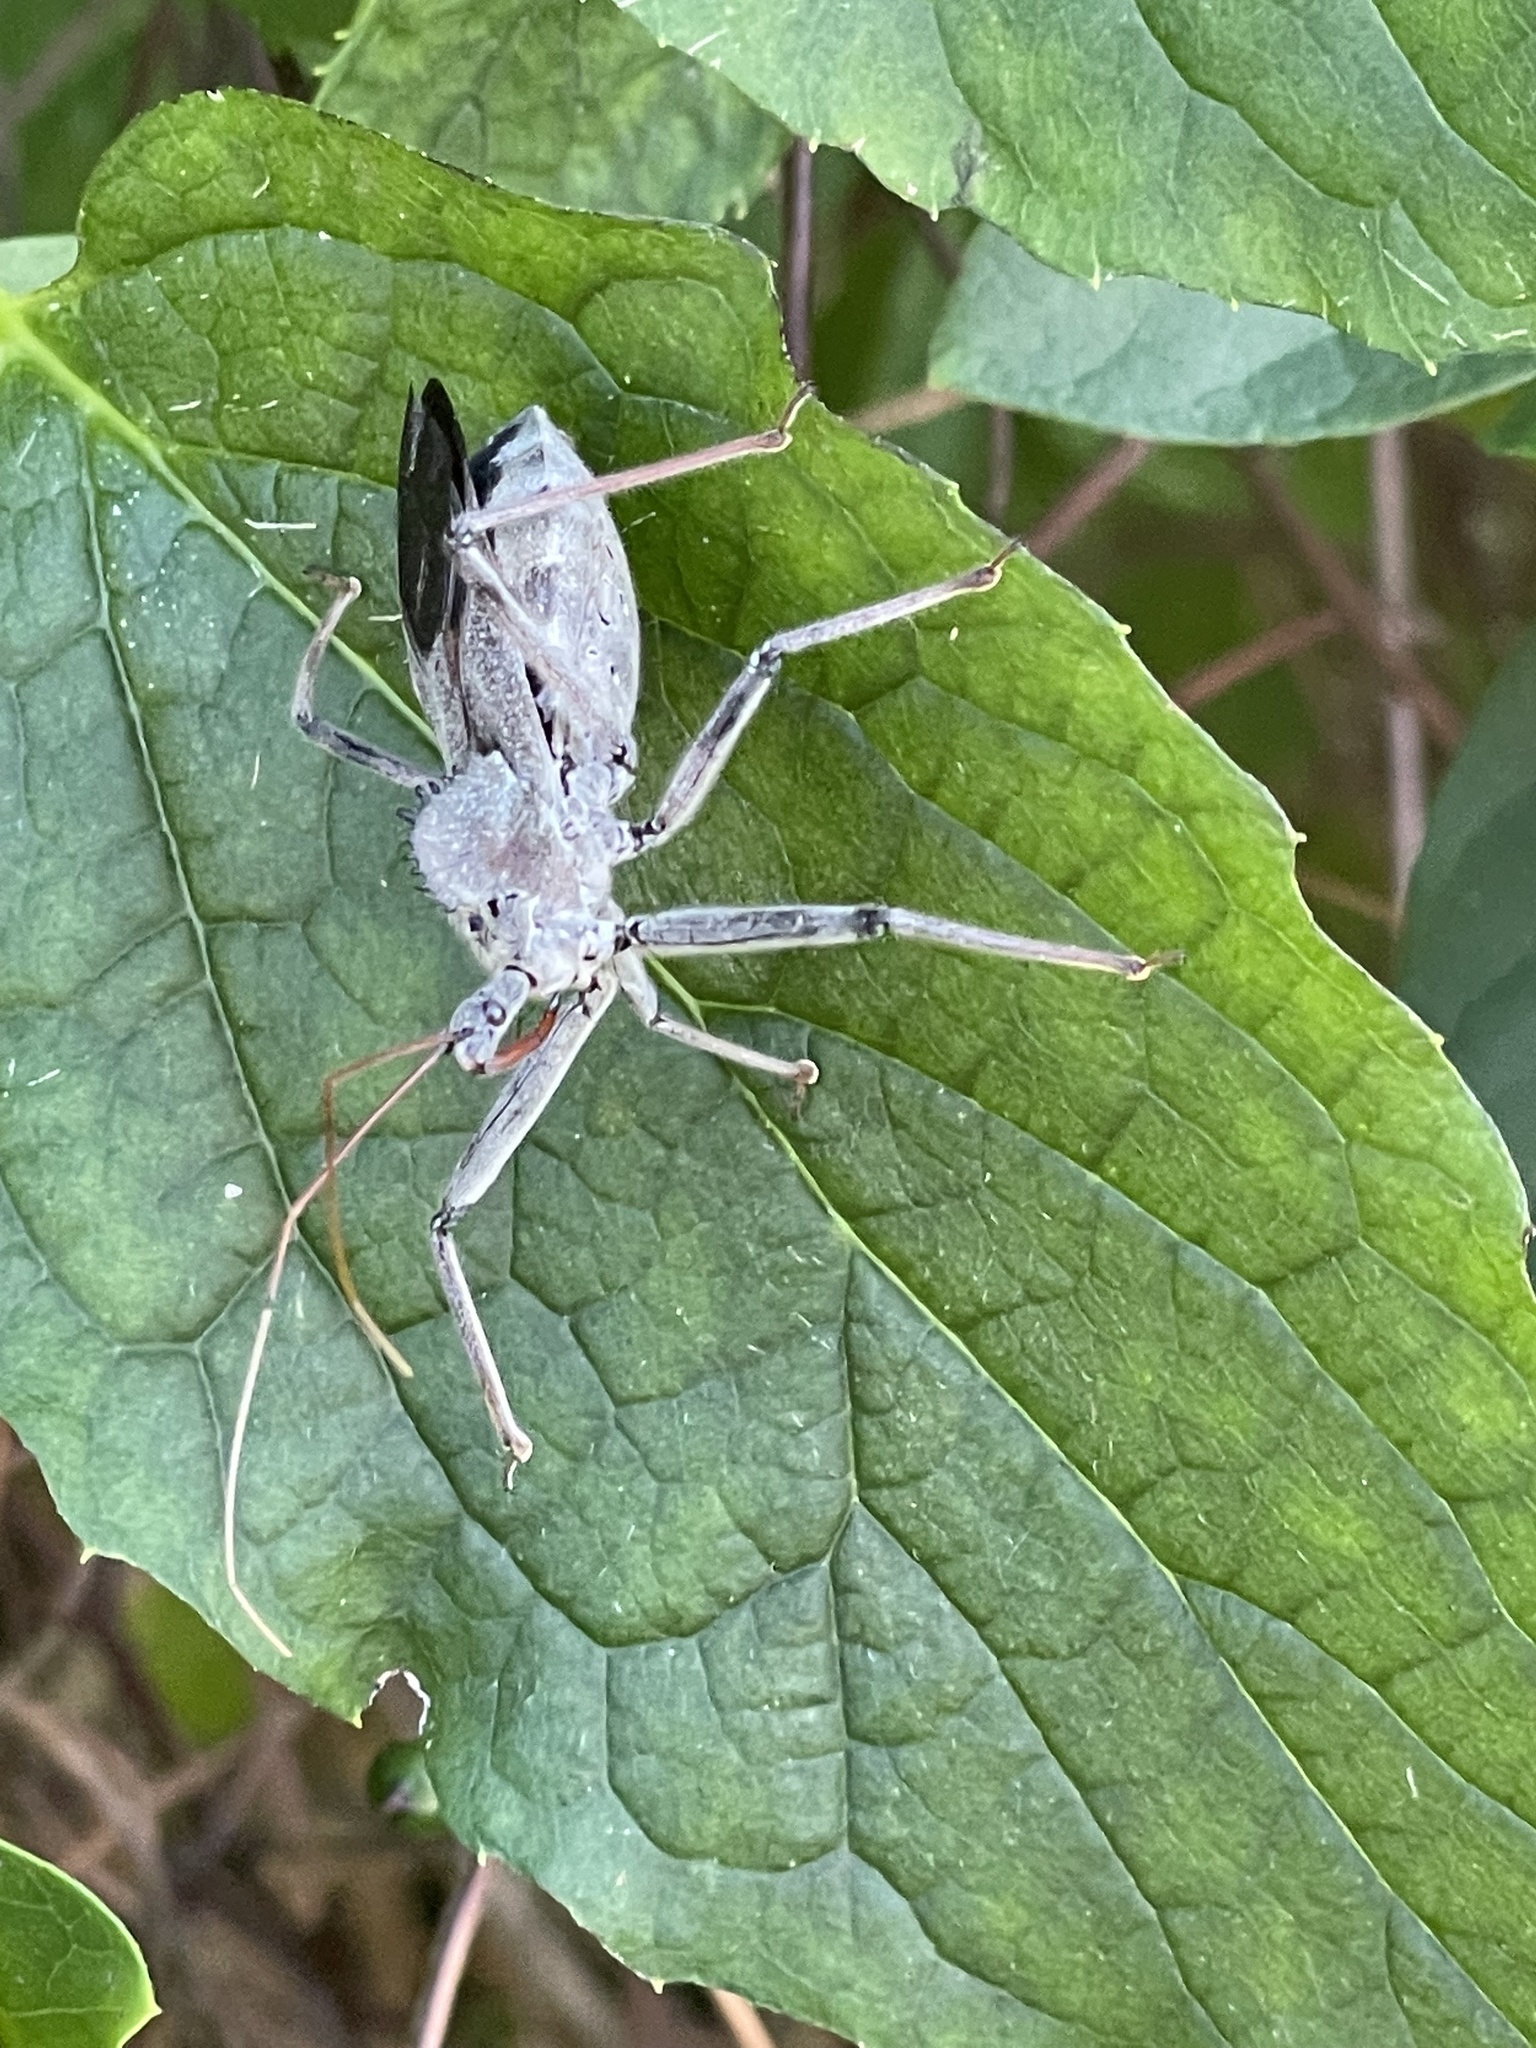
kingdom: Animalia
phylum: Arthropoda
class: Insecta
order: Hemiptera
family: Reduviidae
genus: Arilus
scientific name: Arilus cristatus
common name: North american wheel bug
